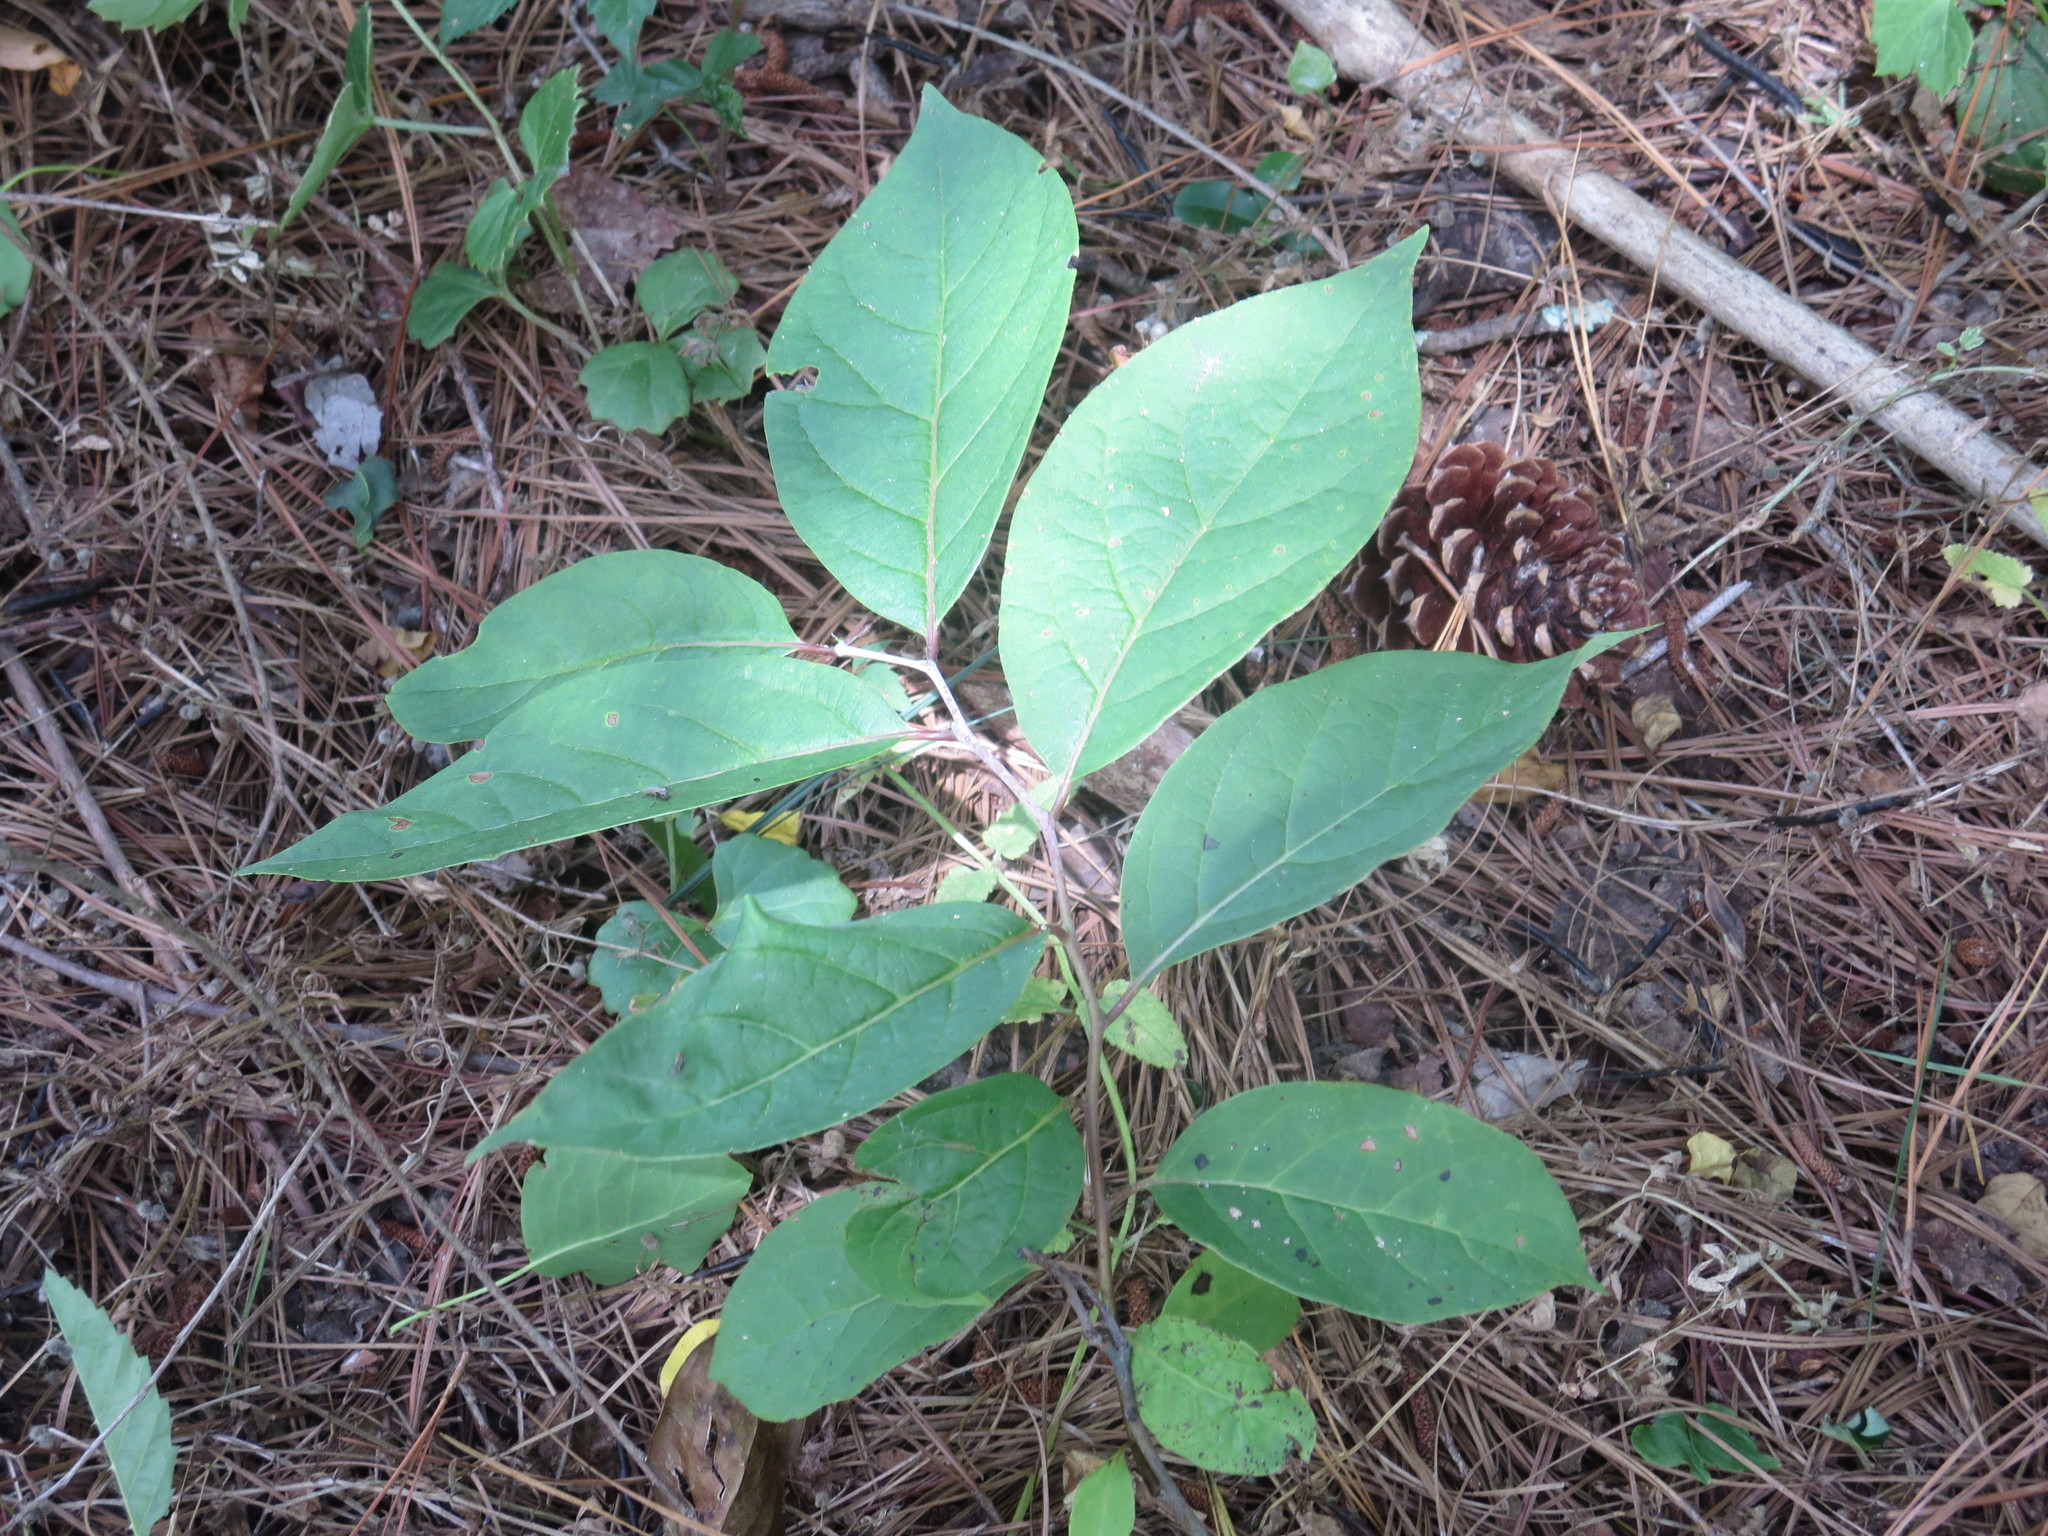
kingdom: Plantae
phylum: Tracheophyta
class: Magnoliopsida
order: Ericales
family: Ebenaceae
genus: Diospyros
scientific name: Diospyros virginiana
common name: Persimmon
